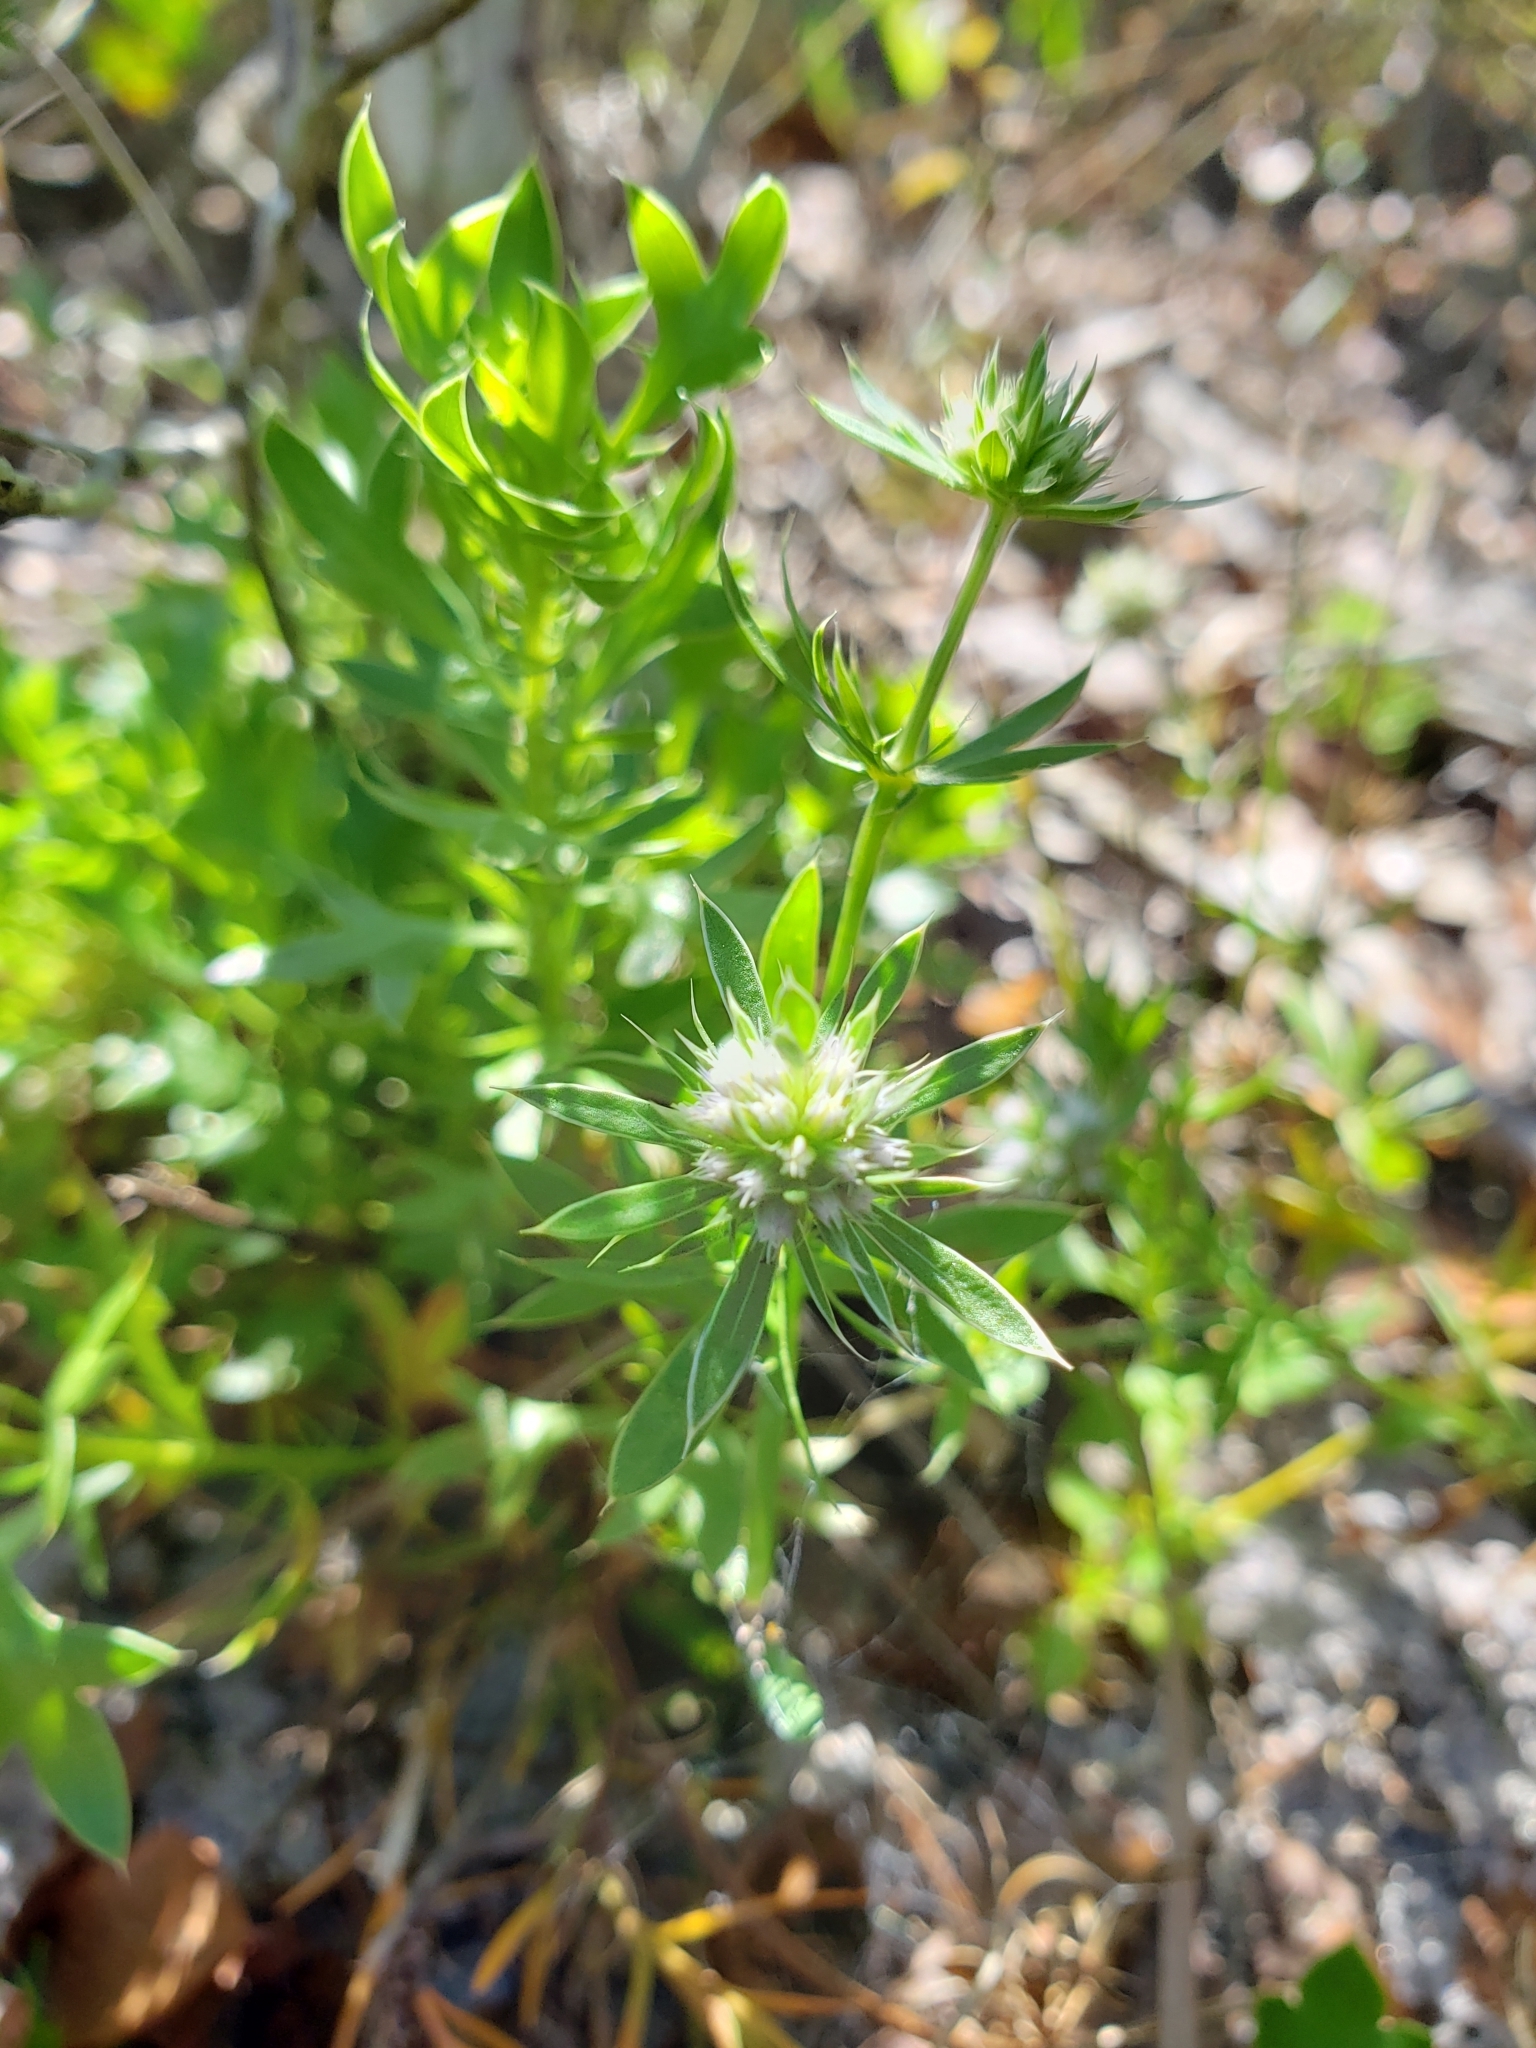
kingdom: Plantae
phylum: Tracheophyta
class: Magnoliopsida
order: Apiales
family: Apiaceae
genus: Eryngium
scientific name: Eryngium aromaticum
